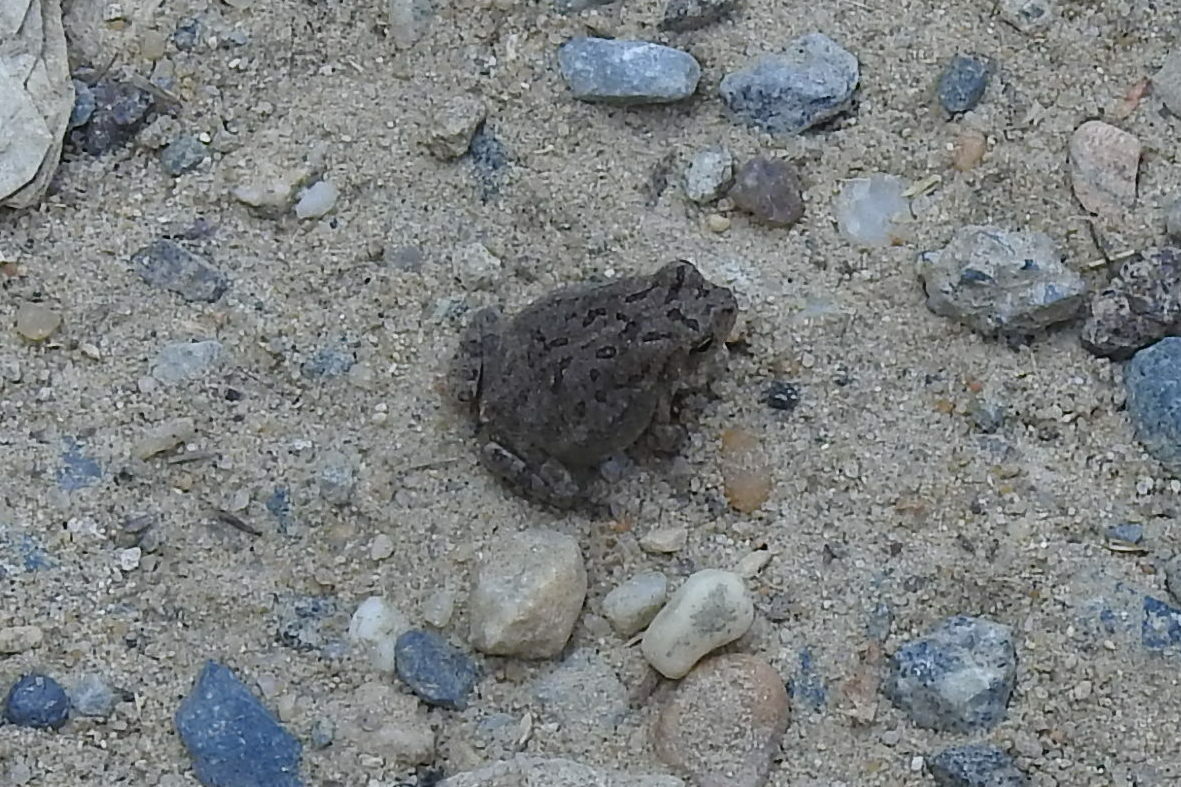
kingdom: Animalia
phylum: Chordata
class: Amphibia
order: Anura
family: Bufonidae
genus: Anaxyrus
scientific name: Anaxyrus fowleri
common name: Fowler's toad
